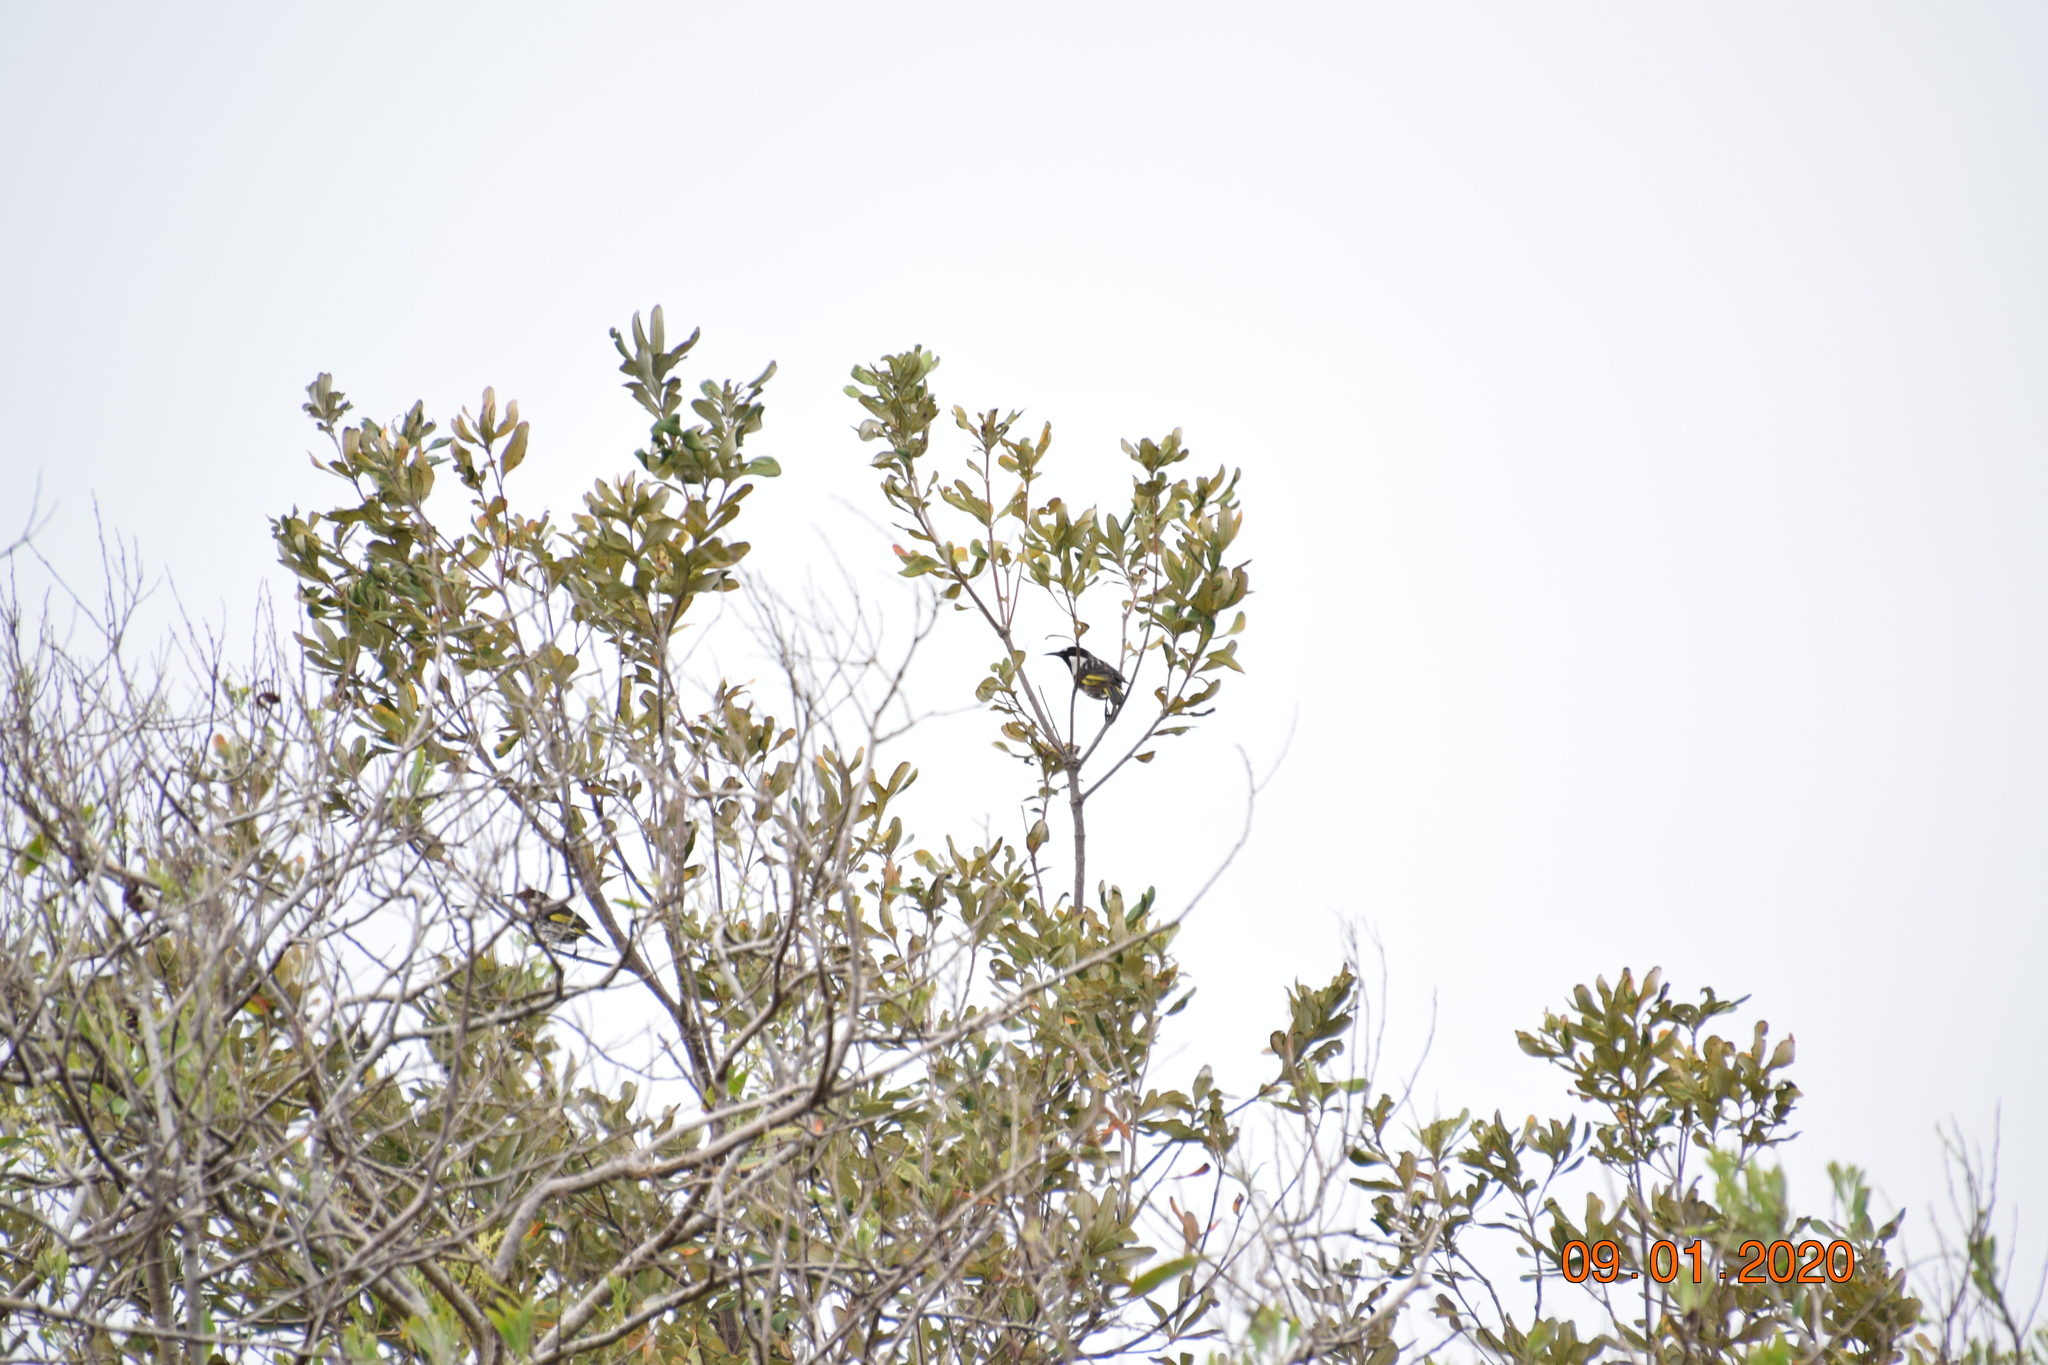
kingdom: Animalia
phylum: Chordata
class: Aves
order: Passeriformes
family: Meliphagidae
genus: Phylidonyris
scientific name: Phylidonyris niger
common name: White-cheeked honeyeater
